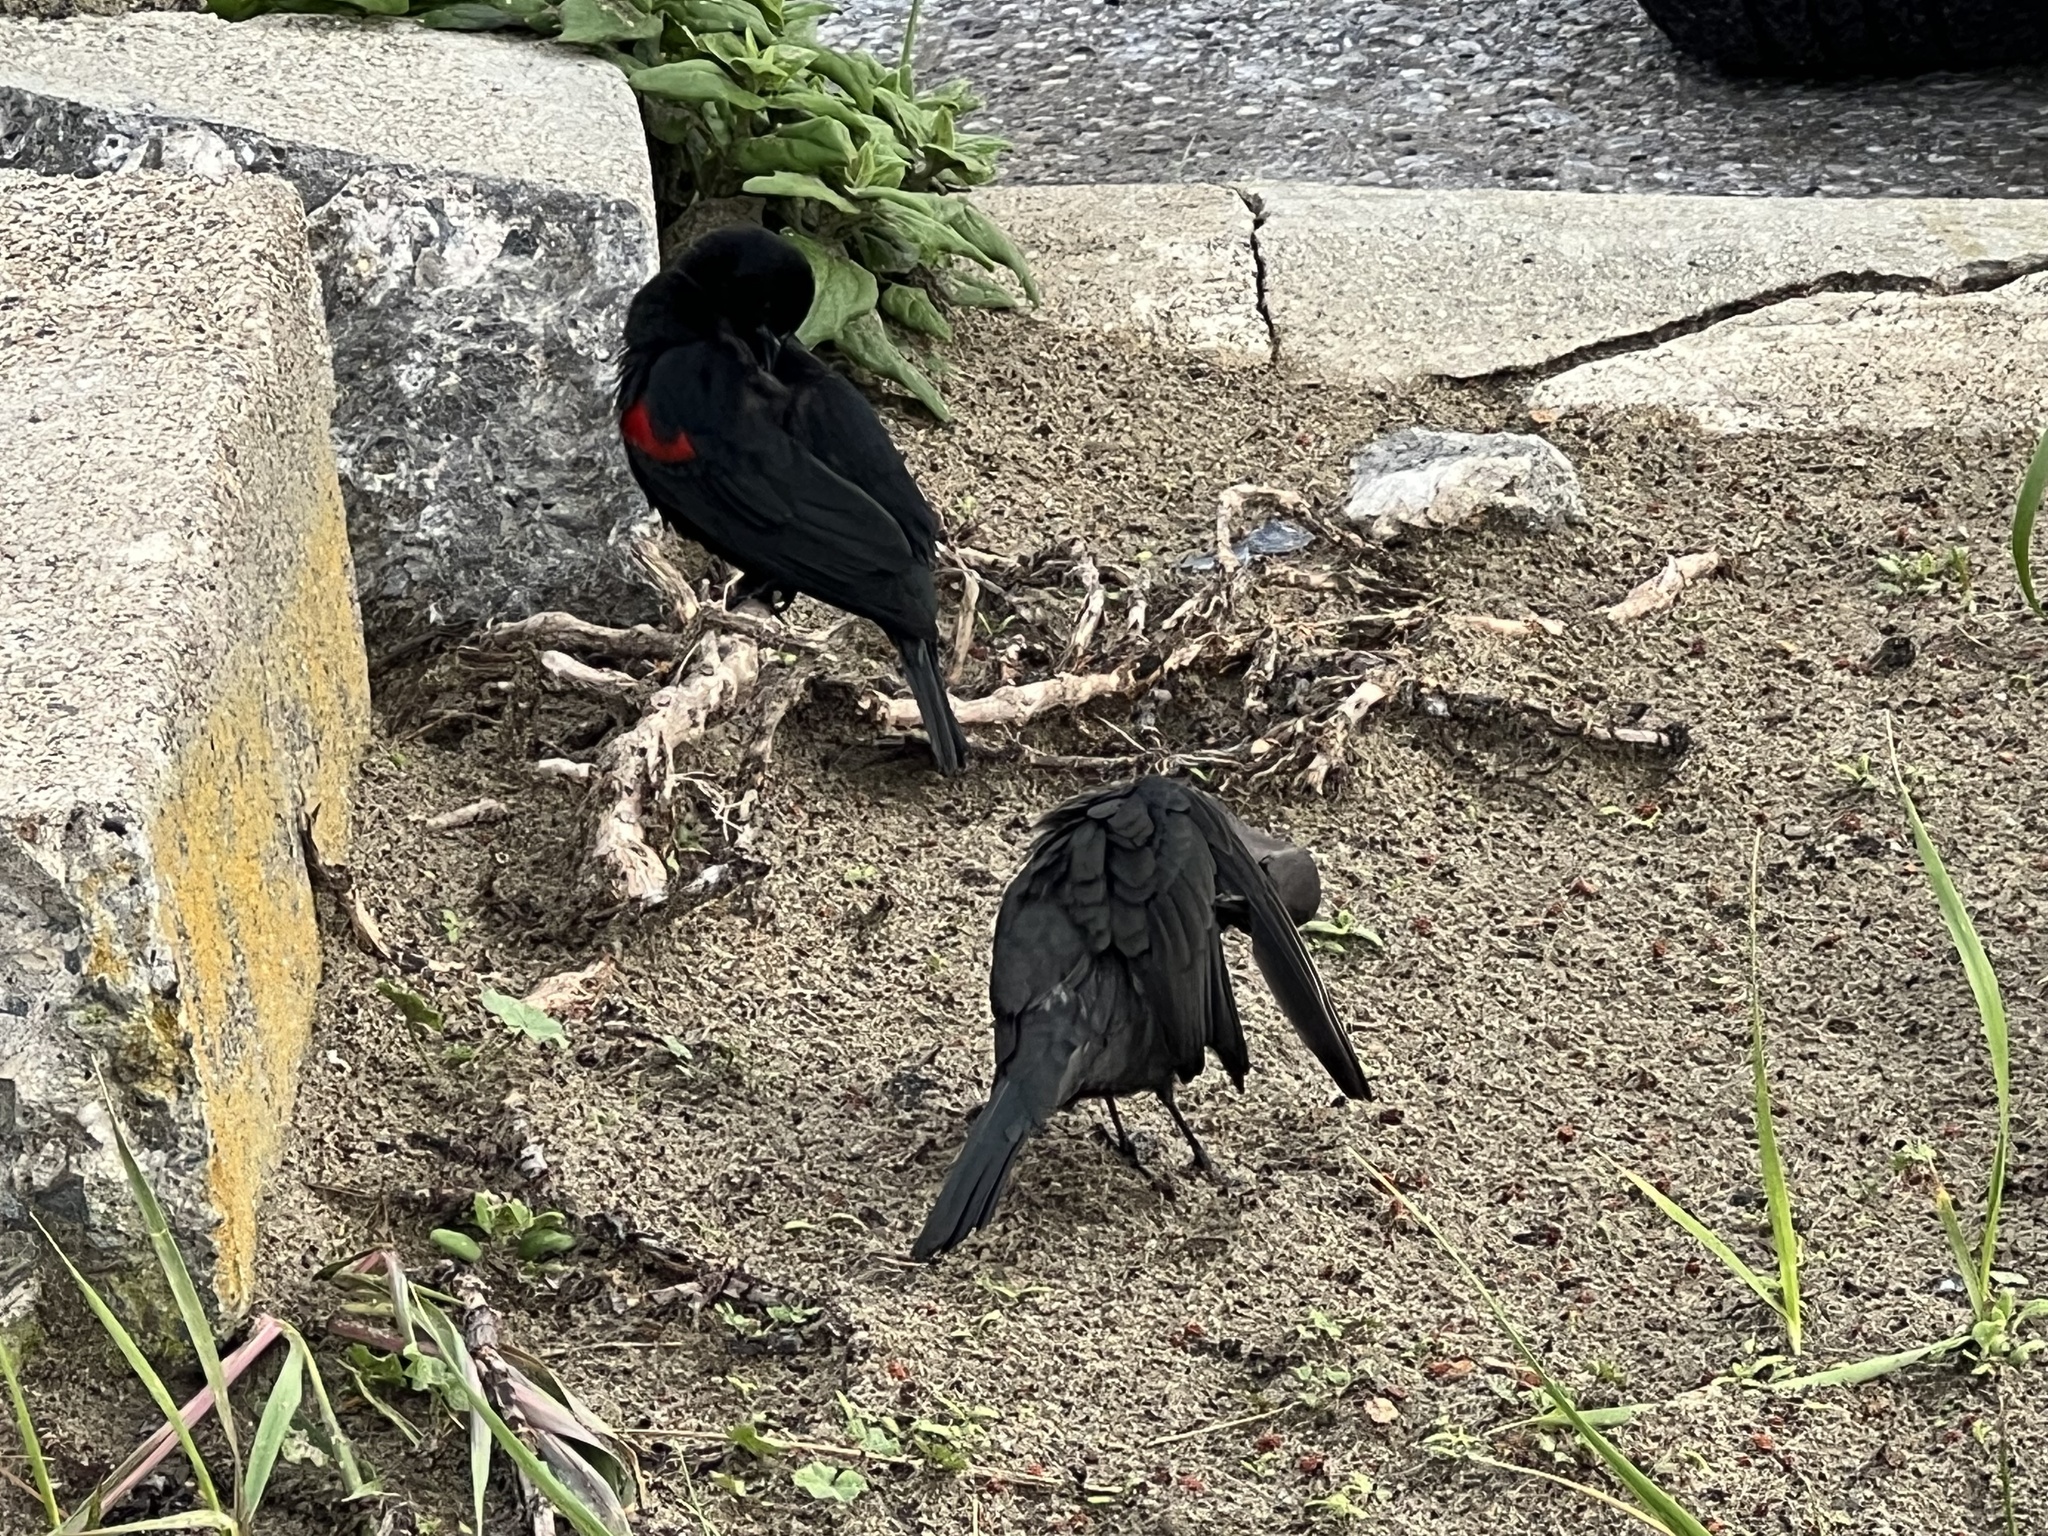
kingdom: Animalia
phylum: Chordata
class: Aves
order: Passeriformes
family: Icteridae
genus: Agelaius
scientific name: Agelaius phoeniceus
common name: Red-winged blackbird
